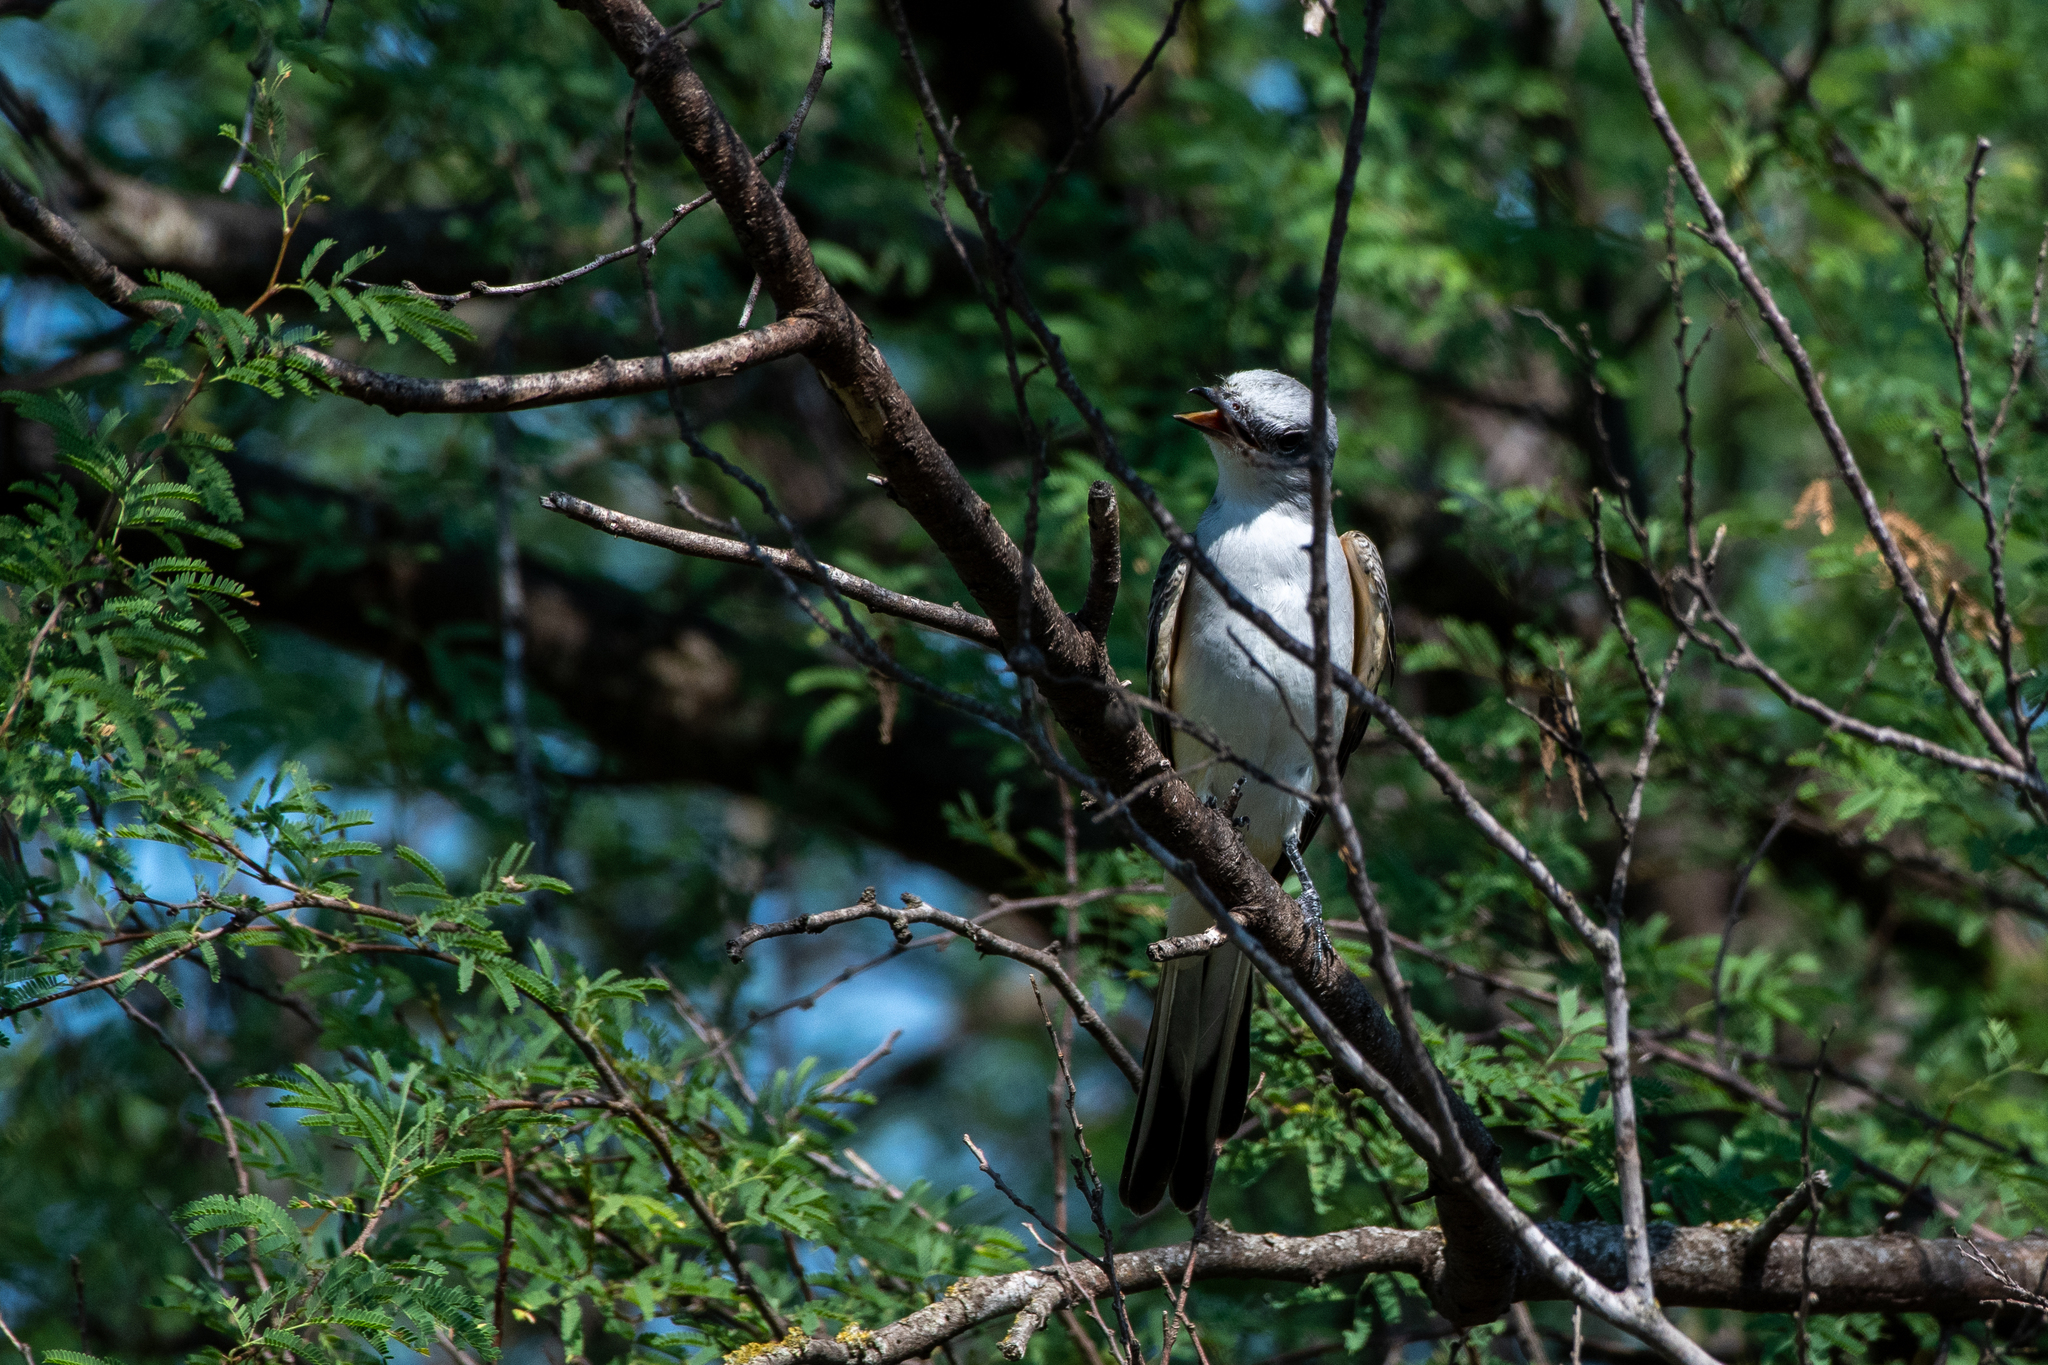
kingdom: Animalia
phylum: Chordata
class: Aves
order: Passeriformes
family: Tyrannidae
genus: Tyrannus
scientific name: Tyrannus forficatus
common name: Scissor-tailed flycatcher
